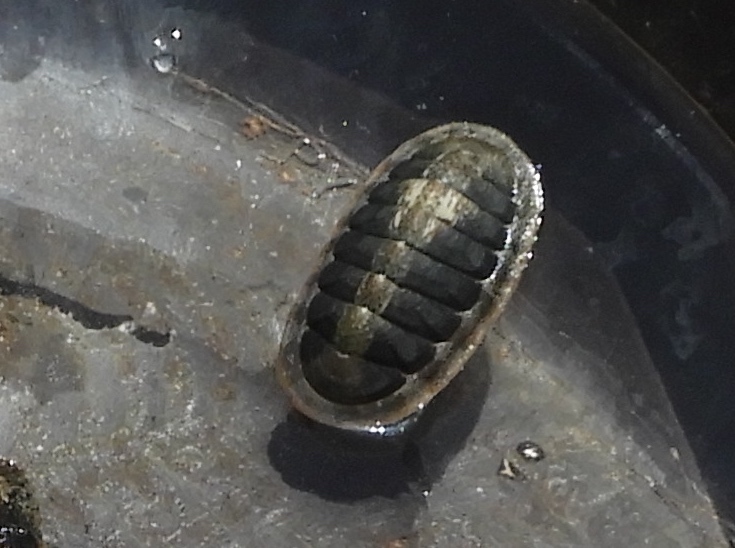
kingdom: Animalia
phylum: Mollusca
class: Polyplacophora
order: Chitonida
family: Ischnochitonidae
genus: Ischnochiton
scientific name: Ischnochiton muscarius
